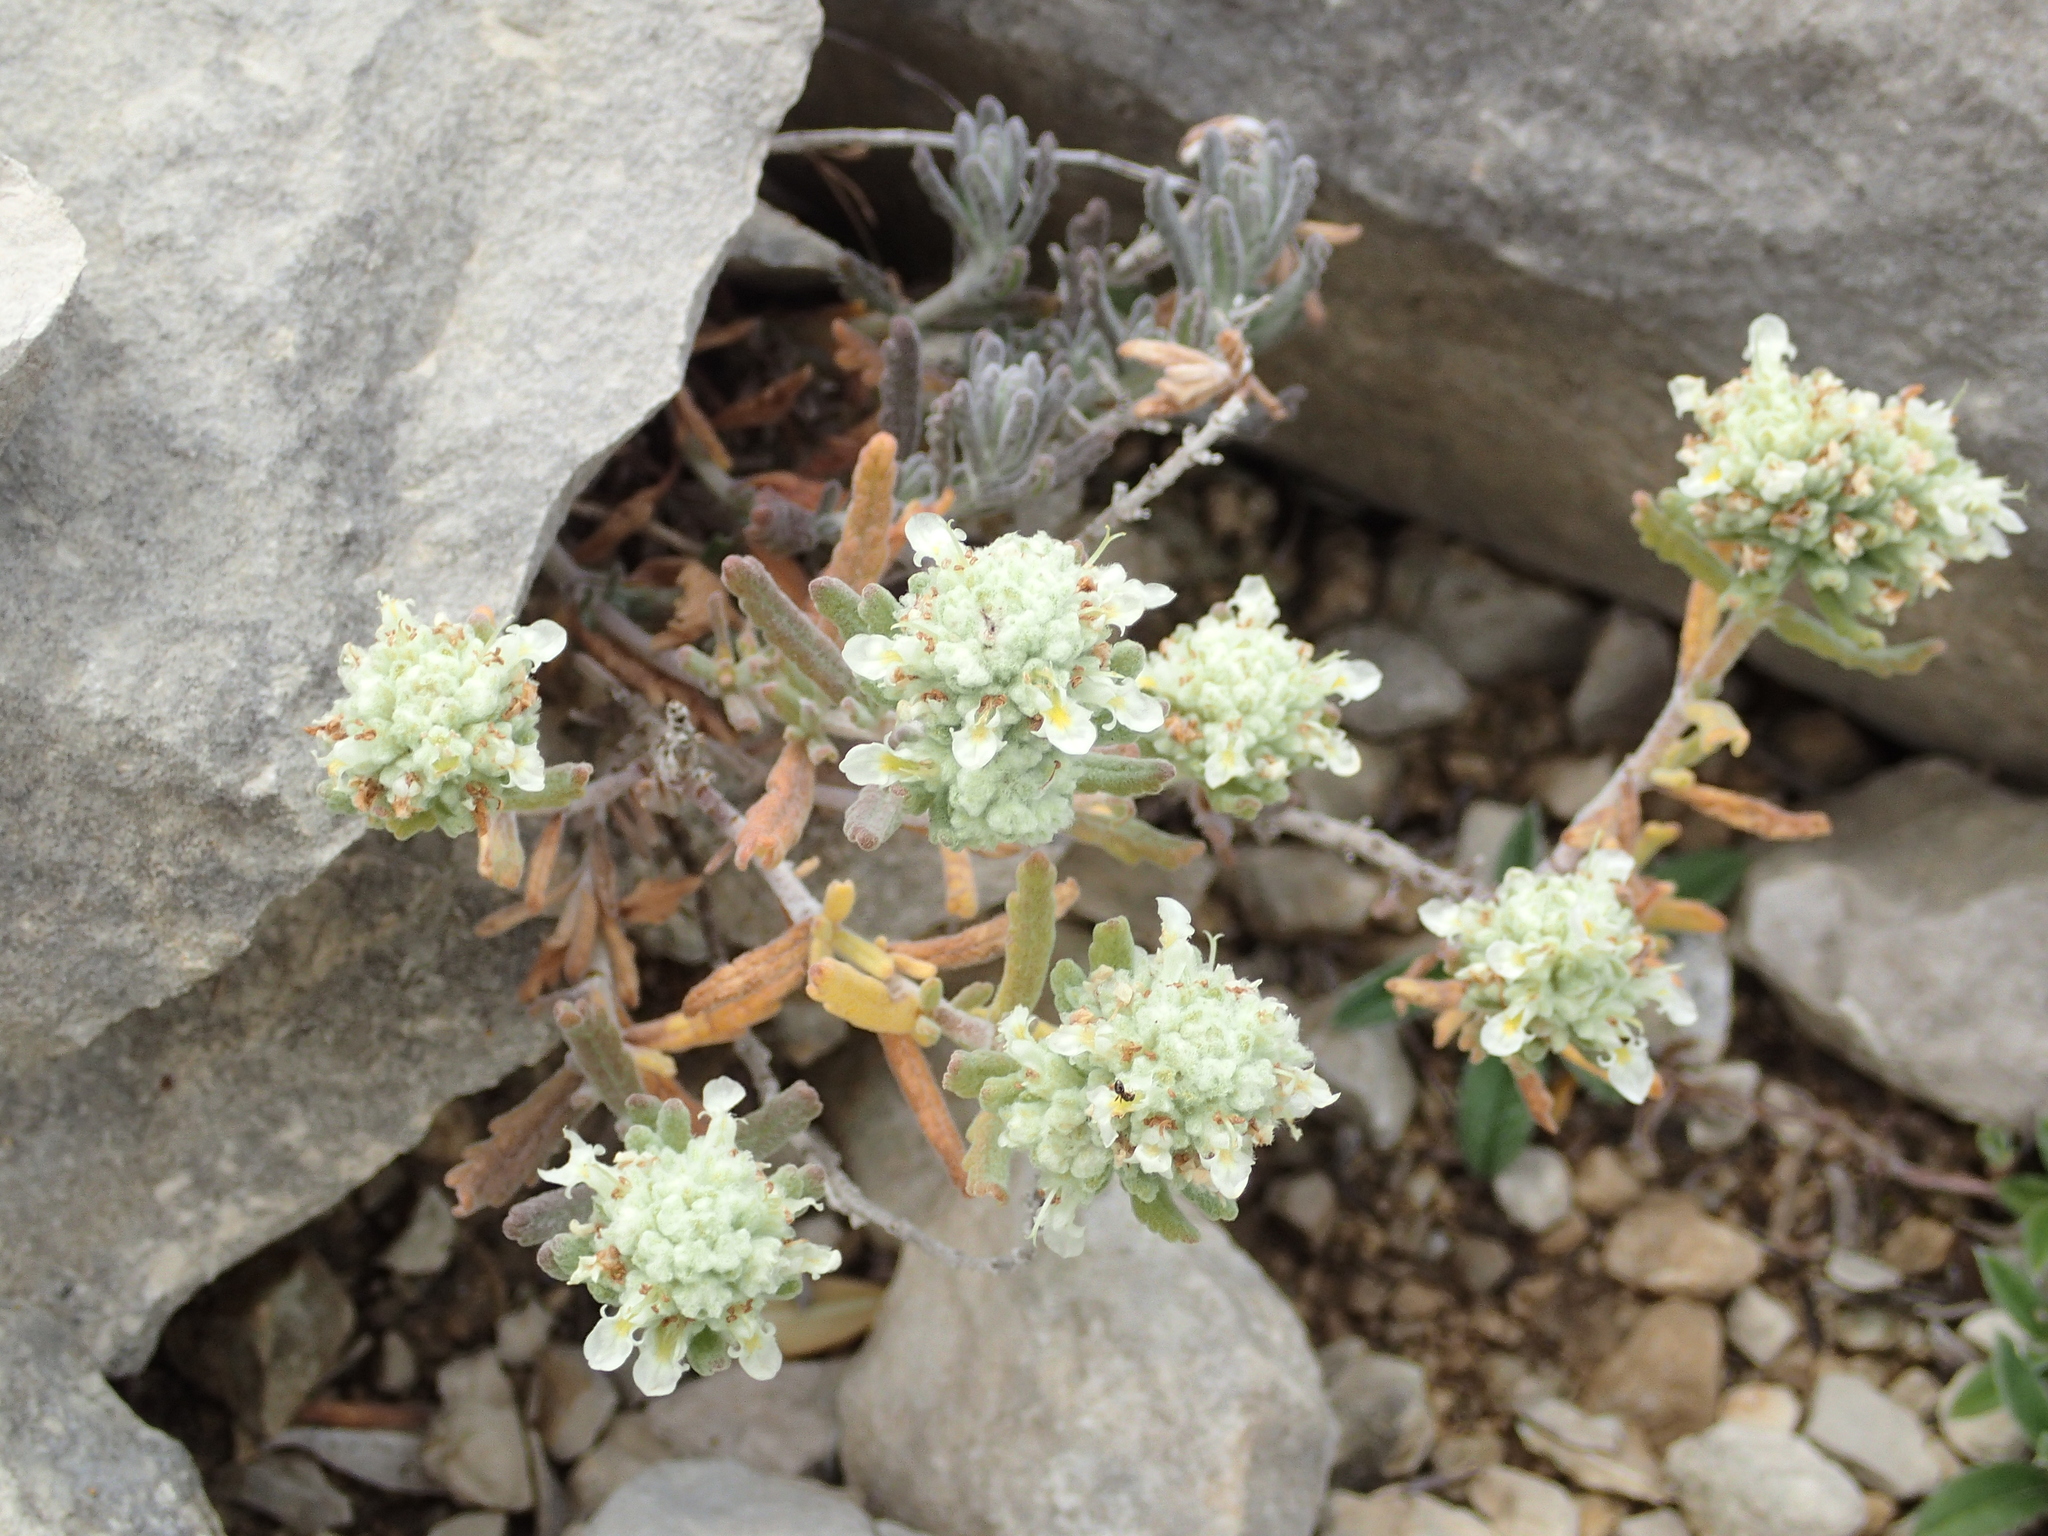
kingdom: Plantae
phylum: Tracheophyta
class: Magnoliopsida
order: Lamiales
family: Lamiaceae
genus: Teucrium
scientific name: Teucrium polium
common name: Poley
